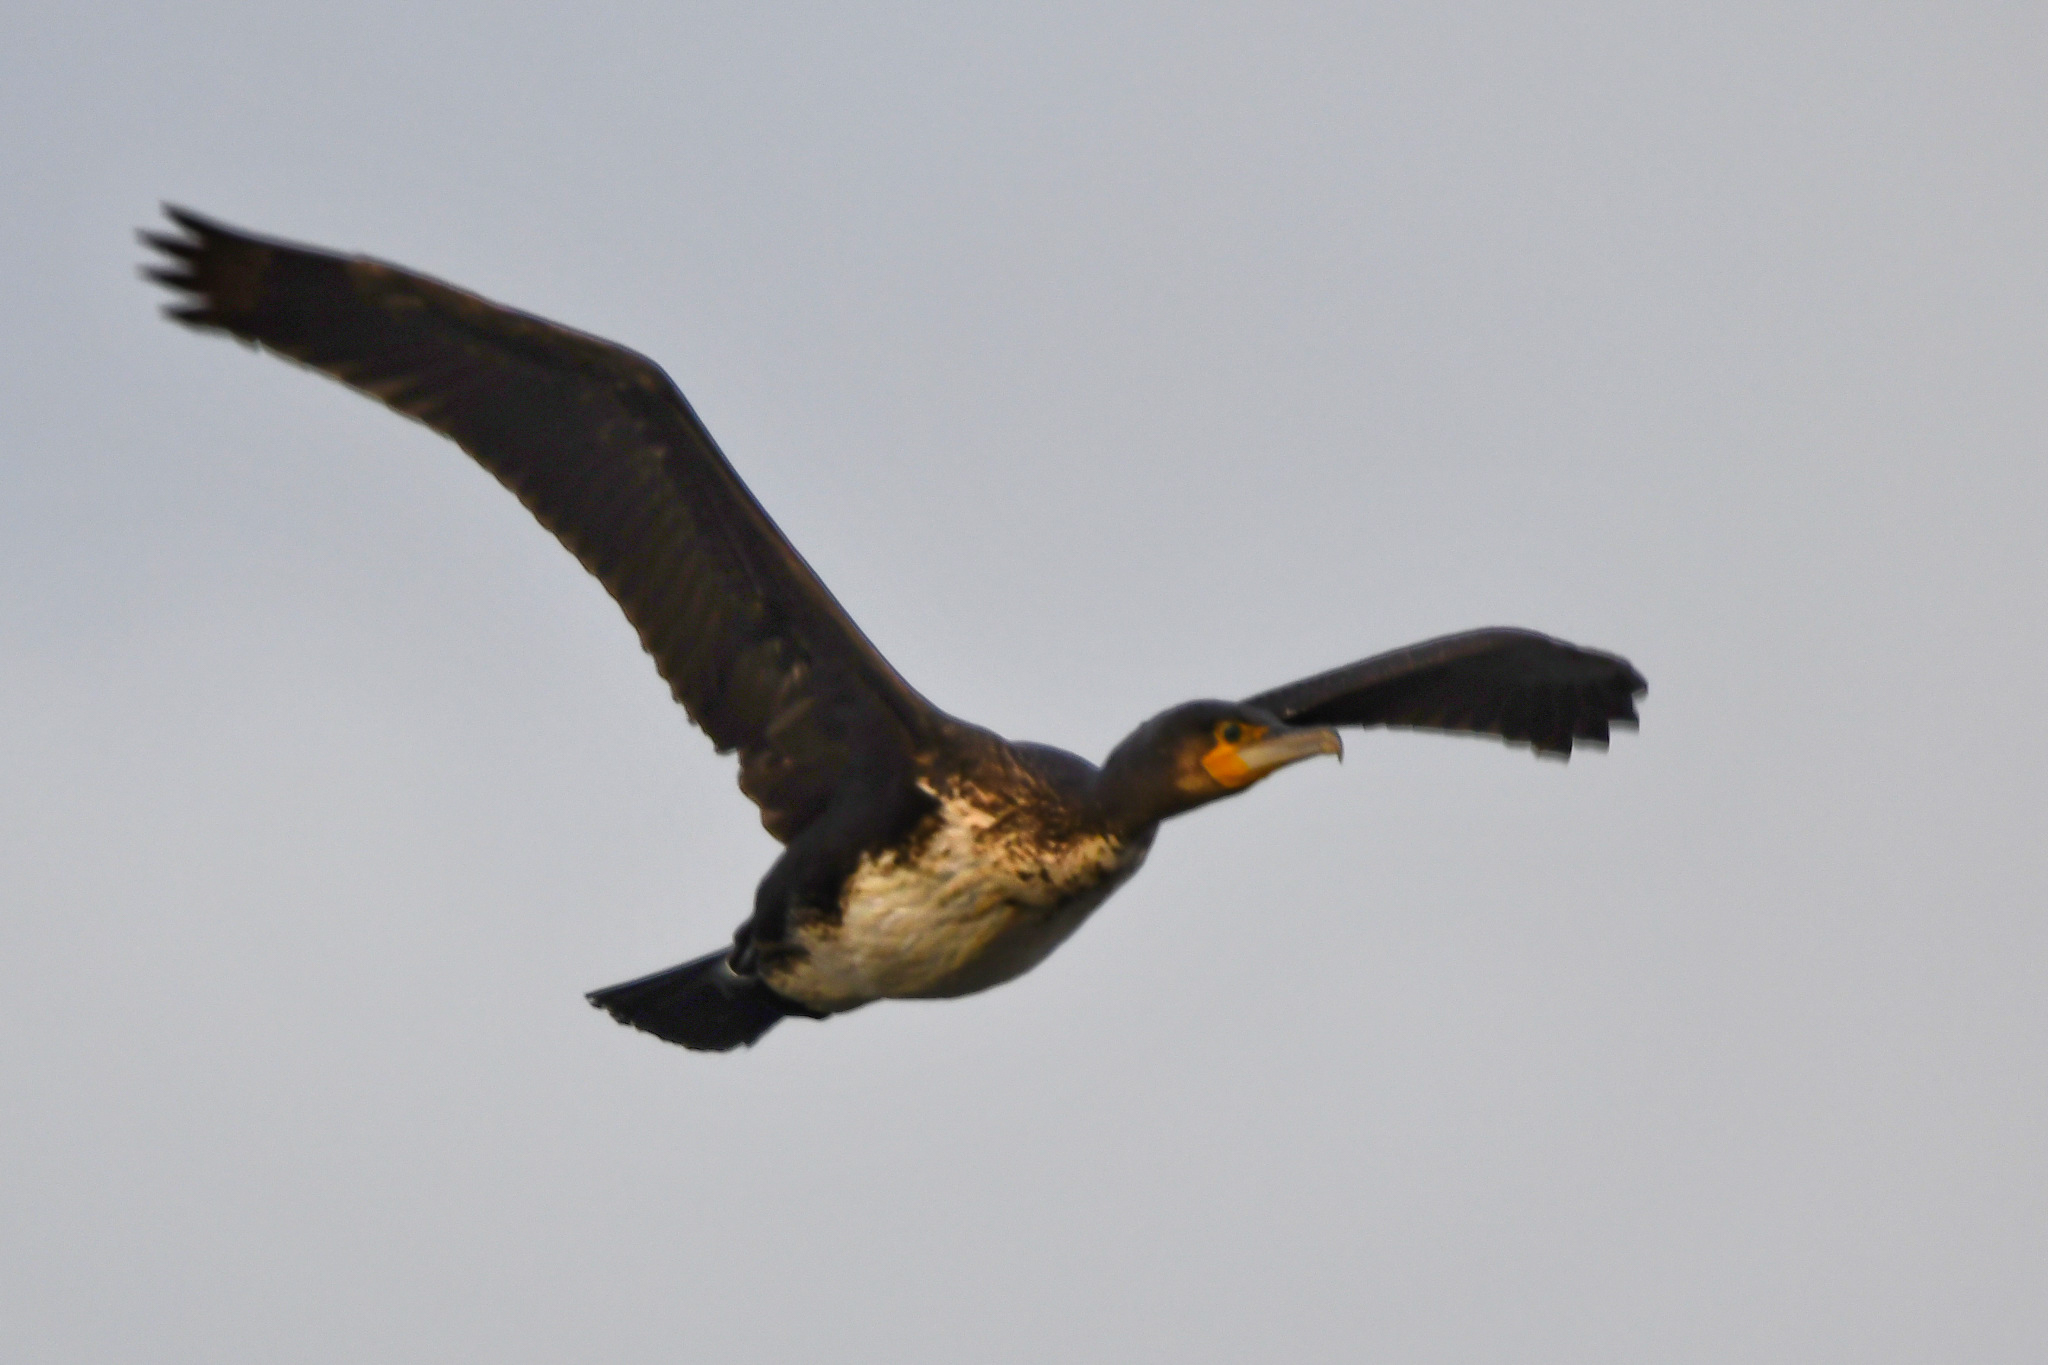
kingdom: Animalia
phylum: Chordata
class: Aves
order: Suliformes
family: Phalacrocoracidae
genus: Phalacrocorax
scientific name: Phalacrocorax carbo
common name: Great cormorant
